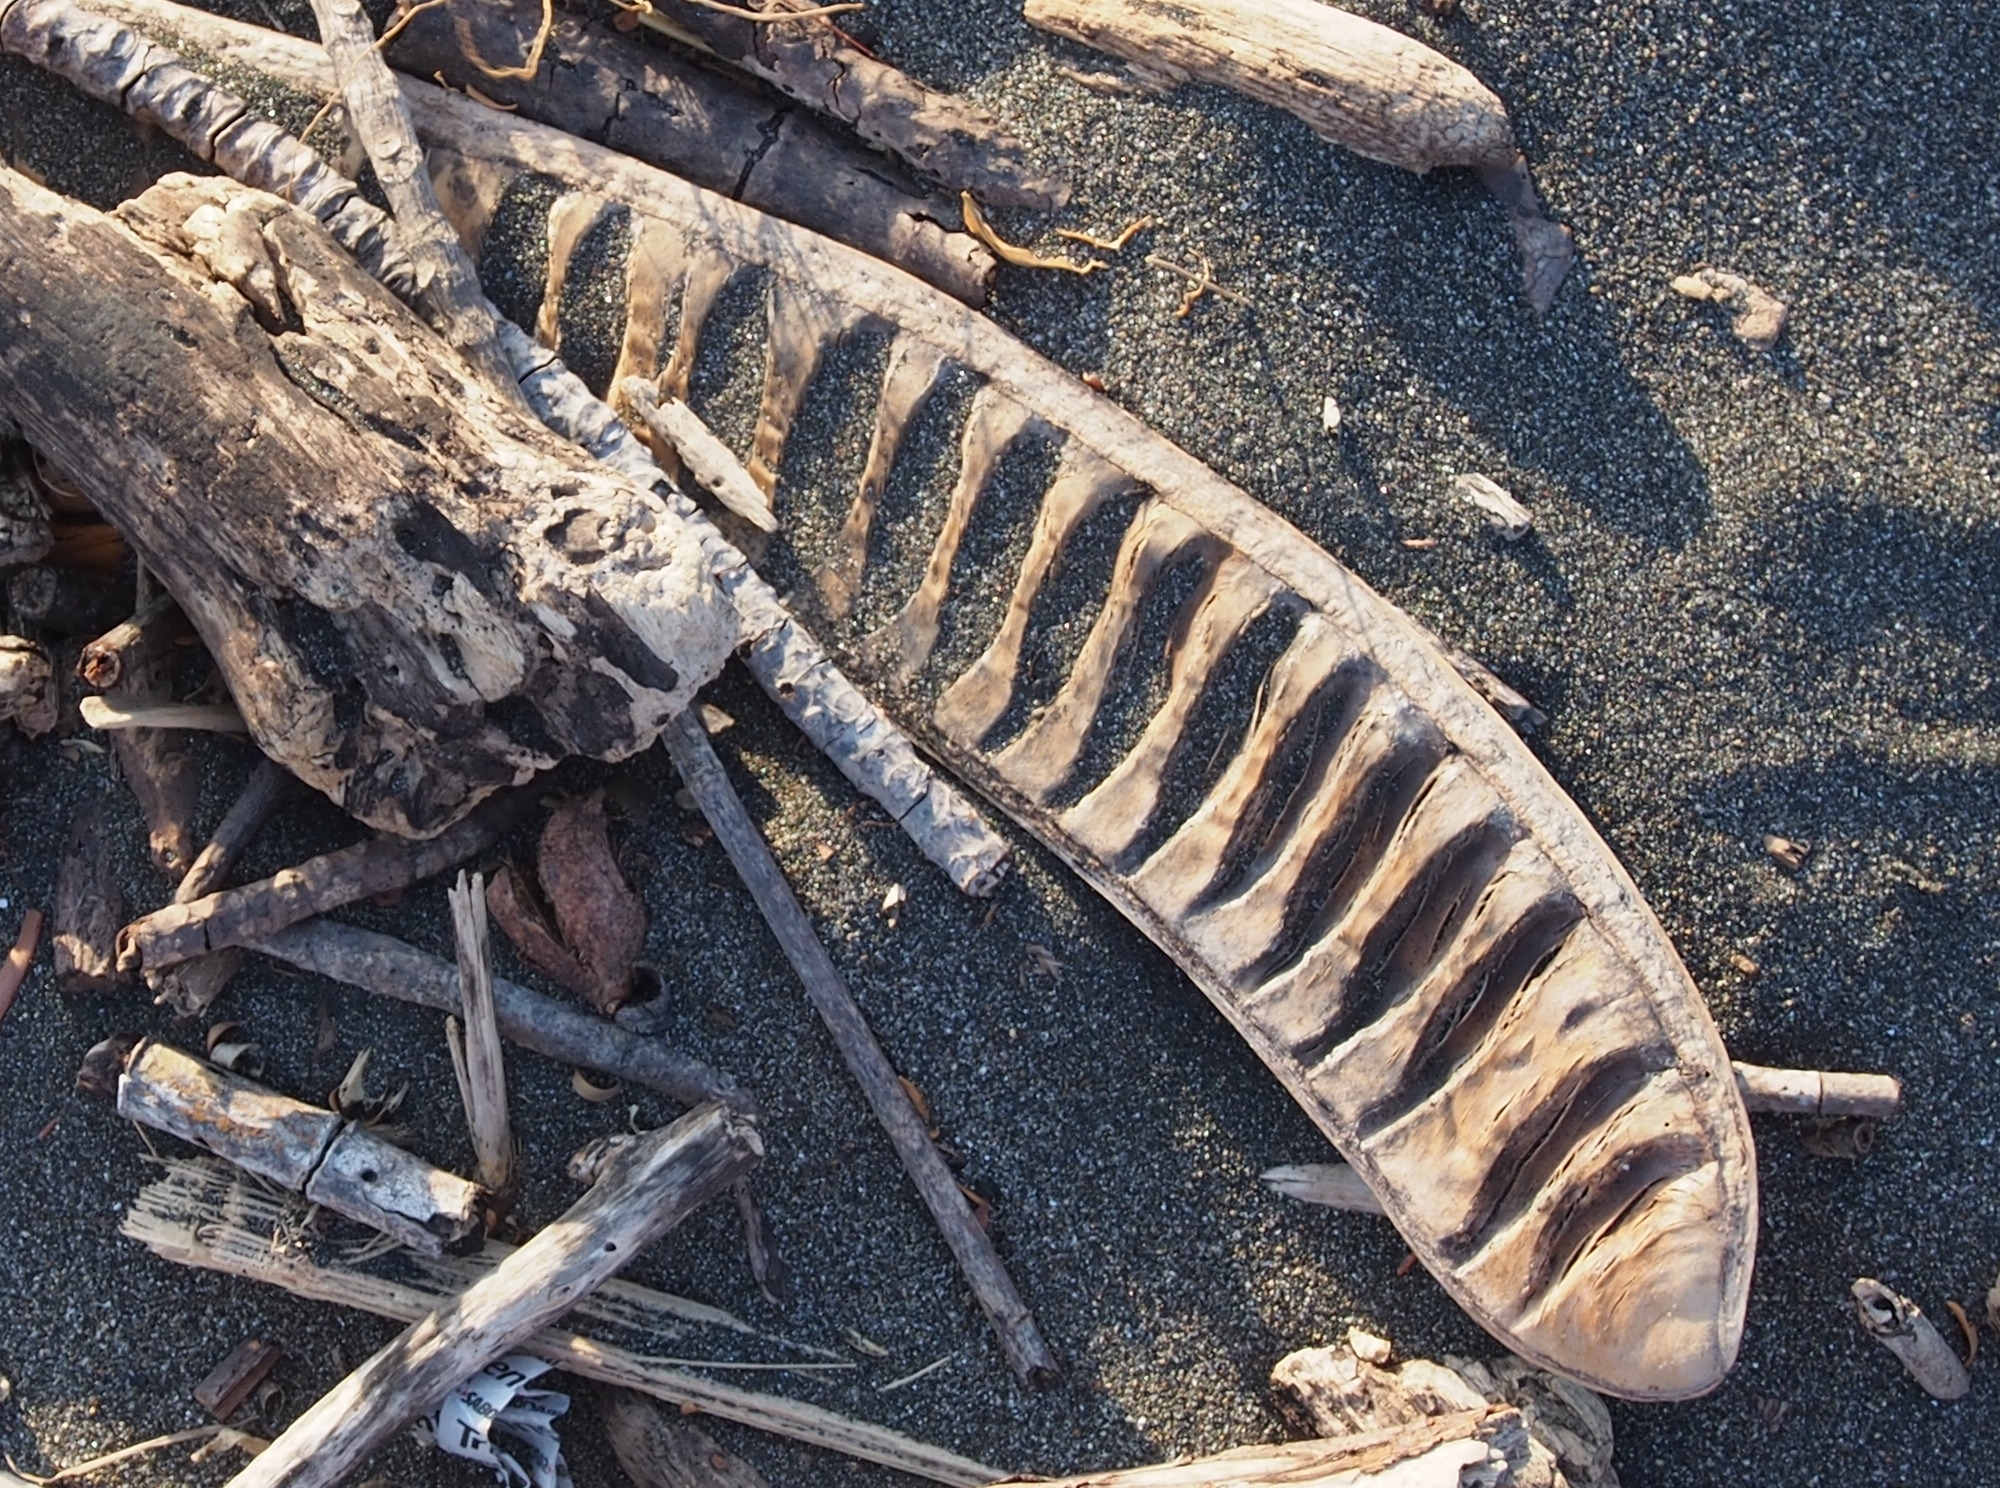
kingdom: Plantae
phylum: Tracheophyta
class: Magnoliopsida
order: Fabales
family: Fabaceae
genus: Delonix
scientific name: Delonix regia
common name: Royal poinciana
